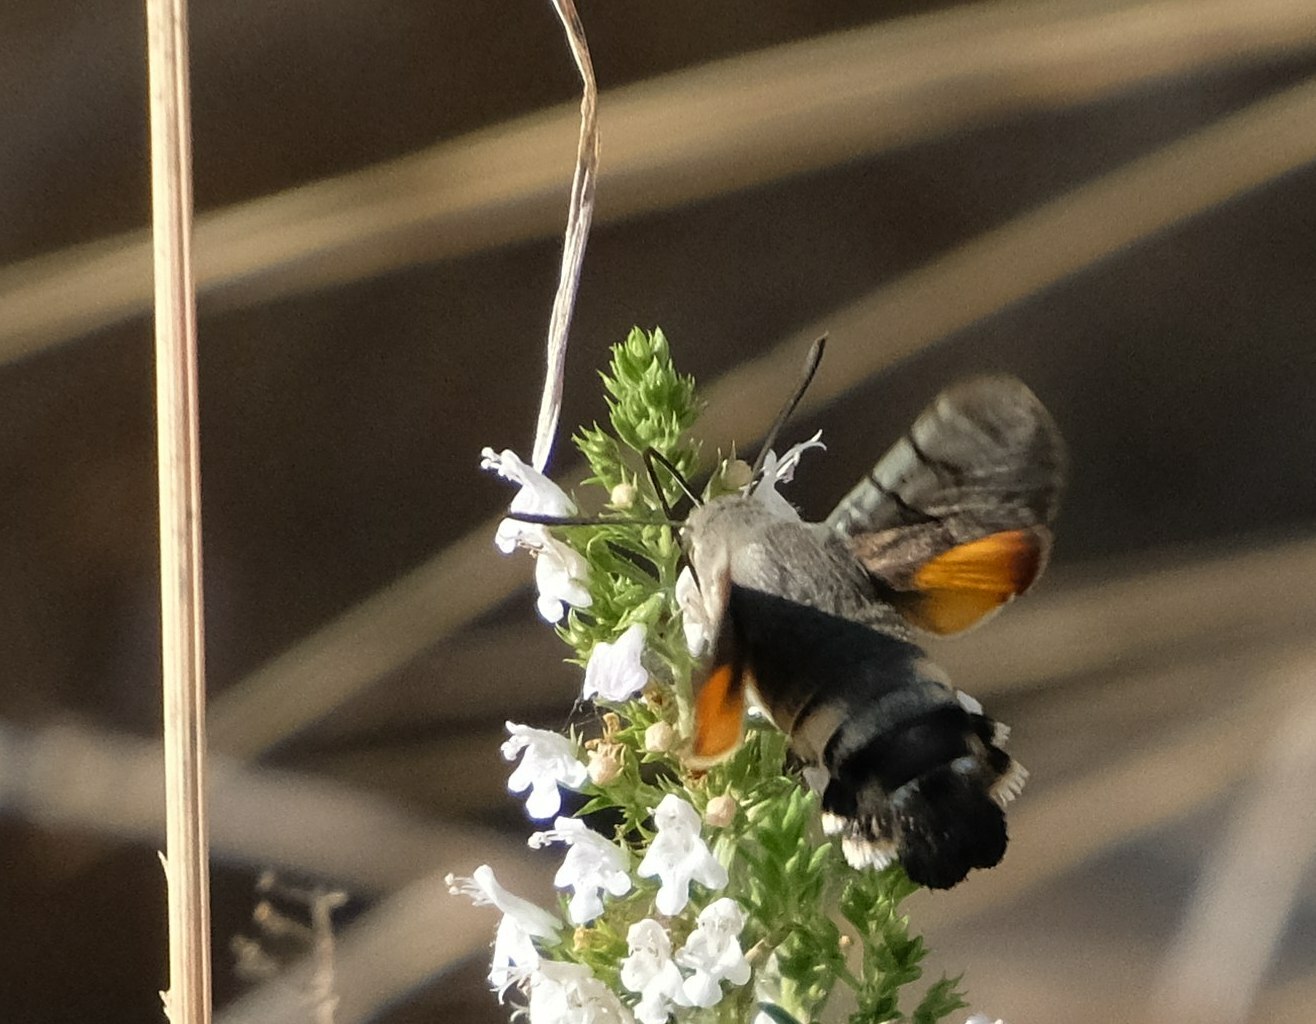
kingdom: Animalia
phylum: Arthropoda
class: Insecta
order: Lepidoptera
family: Sphingidae
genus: Macroglossum
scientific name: Macroglossum stellatarum
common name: Humming-bird hawk-moth
